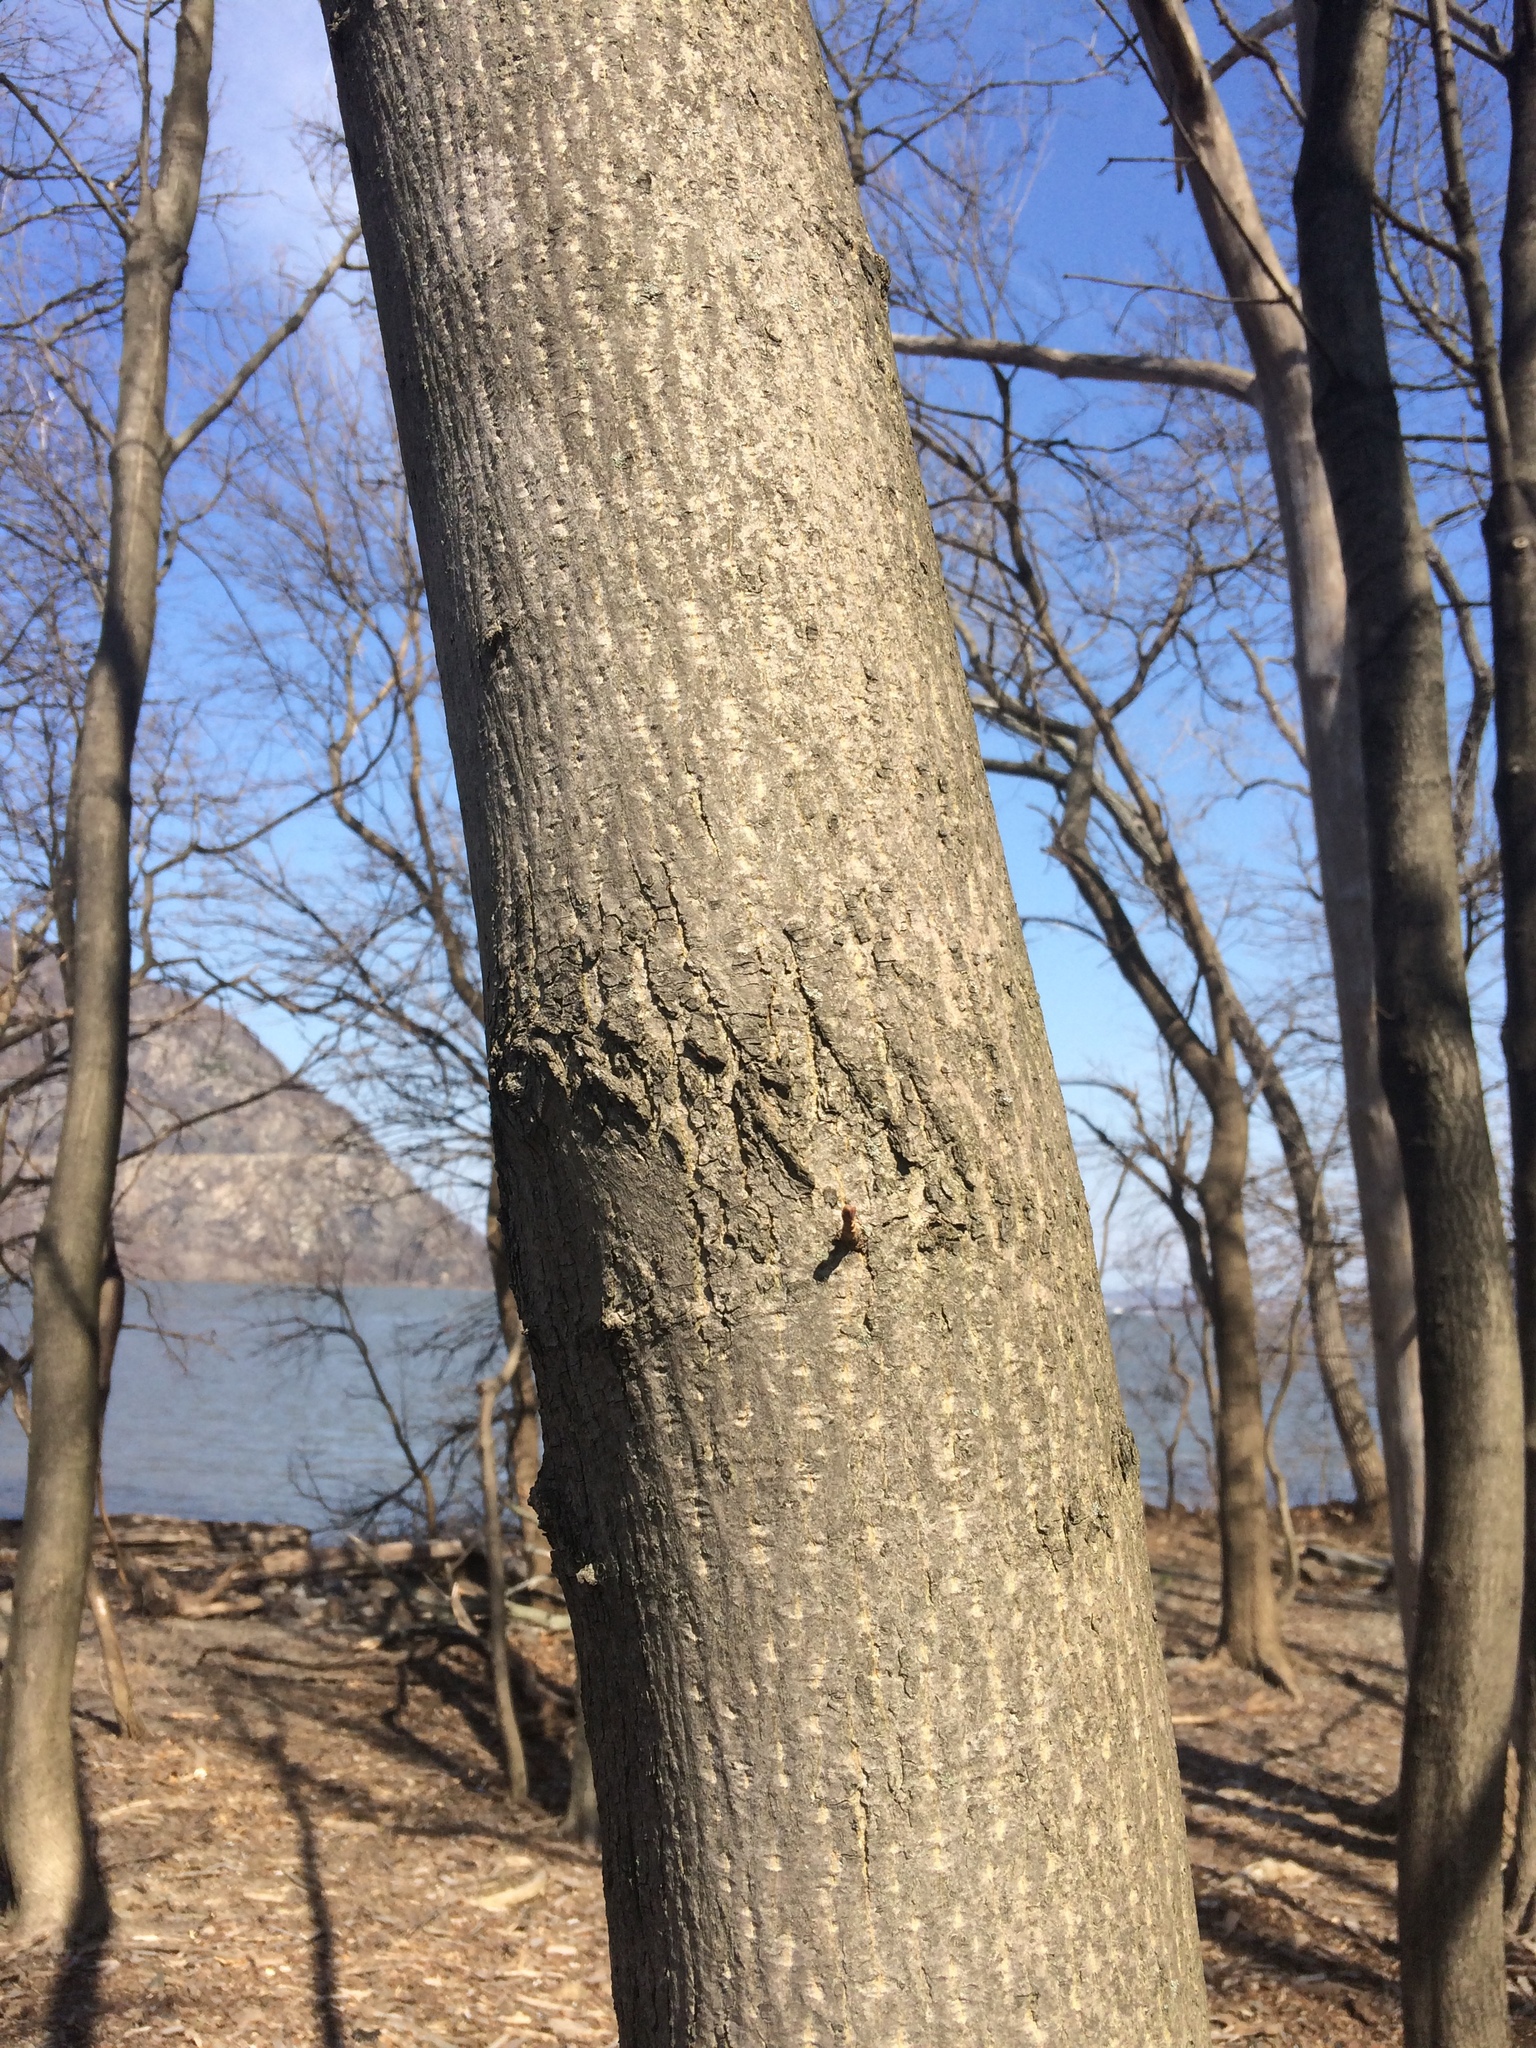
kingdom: Plantae
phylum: Tracheophyta
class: Magnoliopsida
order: Fagales
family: Juglandaceae
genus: Carya
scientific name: Carya cordiformis
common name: Bitternut hickory
